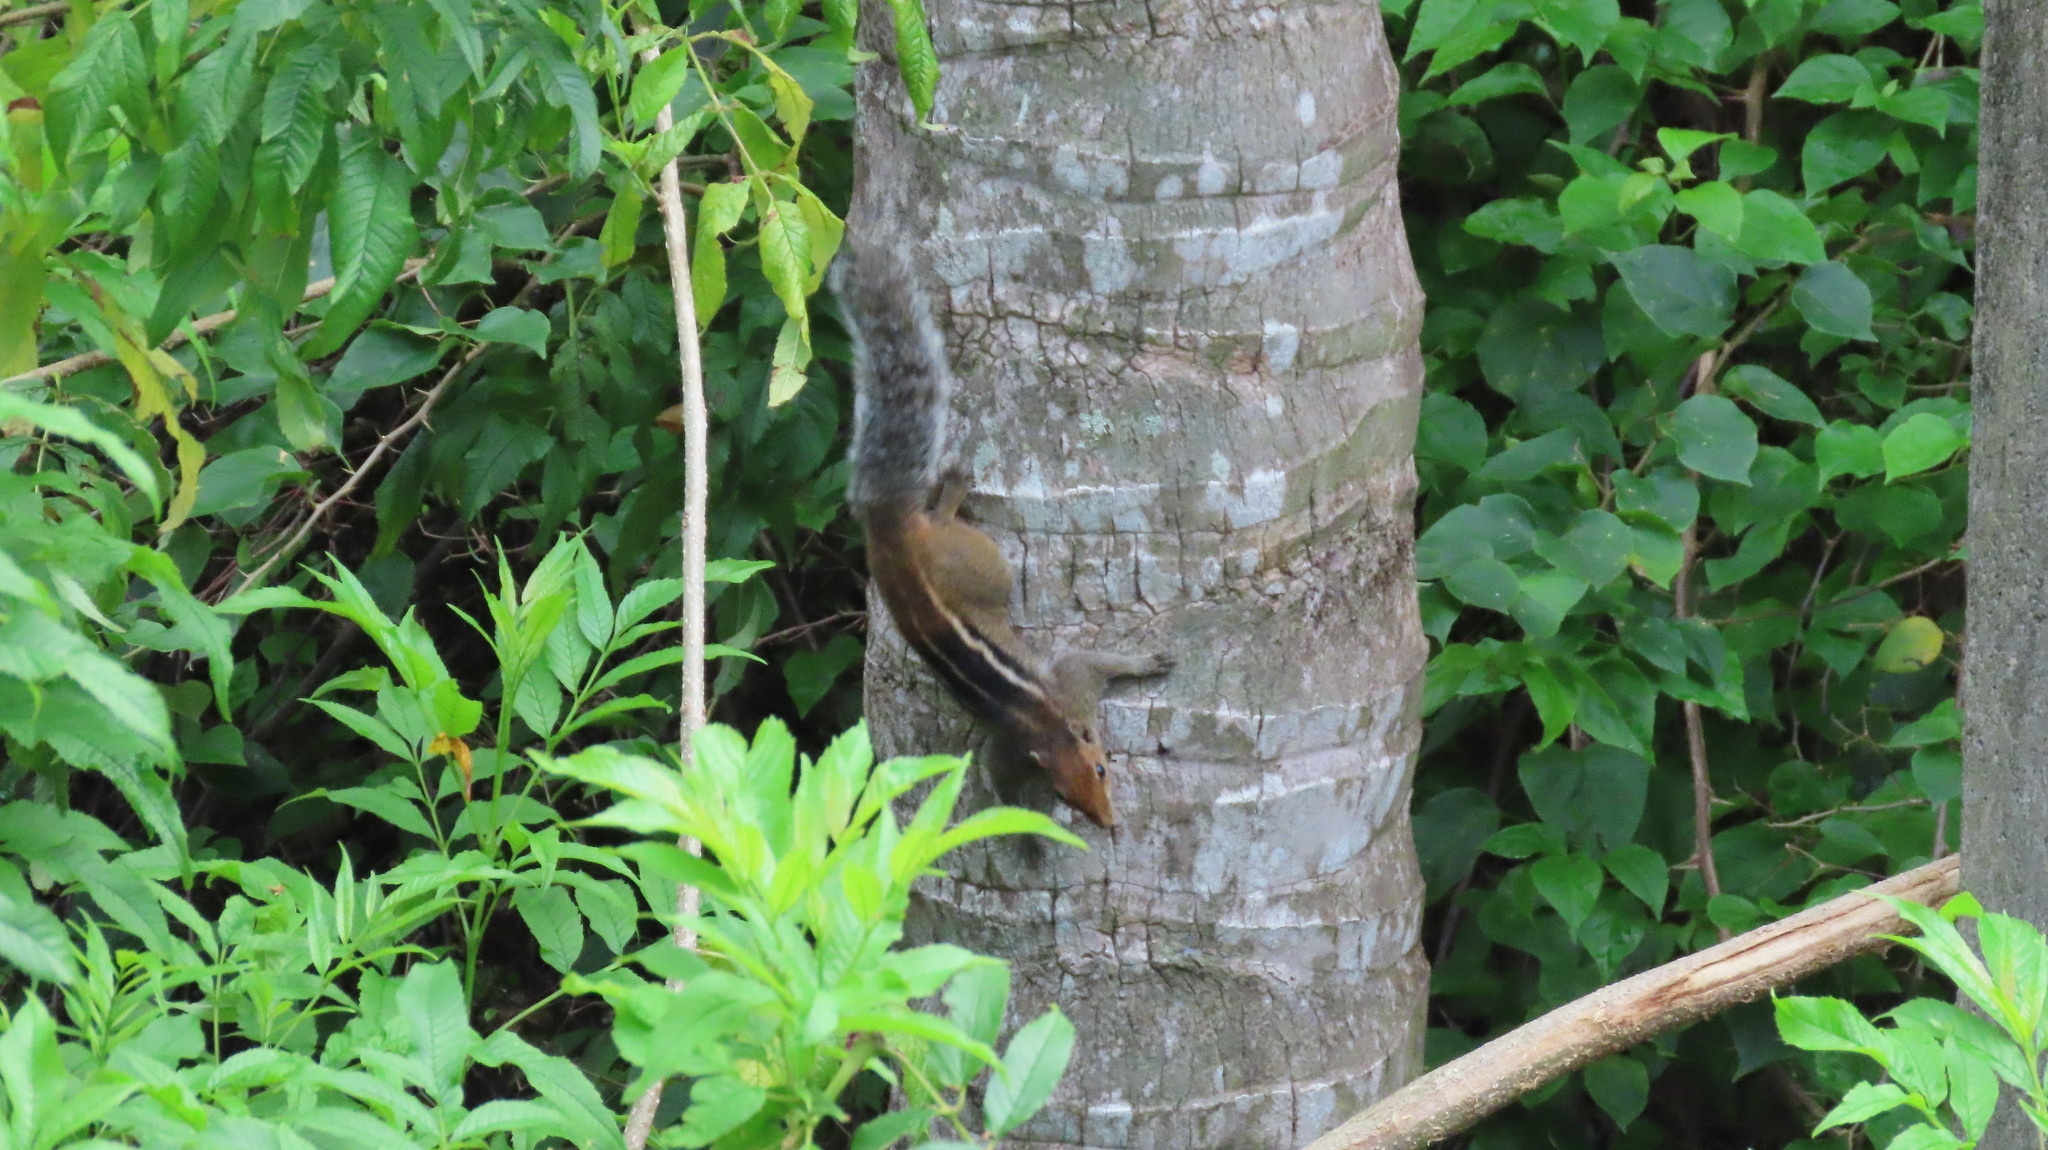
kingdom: Animalia
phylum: Chordata
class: Mammalia
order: Rodentia
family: Sciuridae
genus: Funambulus
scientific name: Funambulus tristriatus
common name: Jungle palm squirrel
